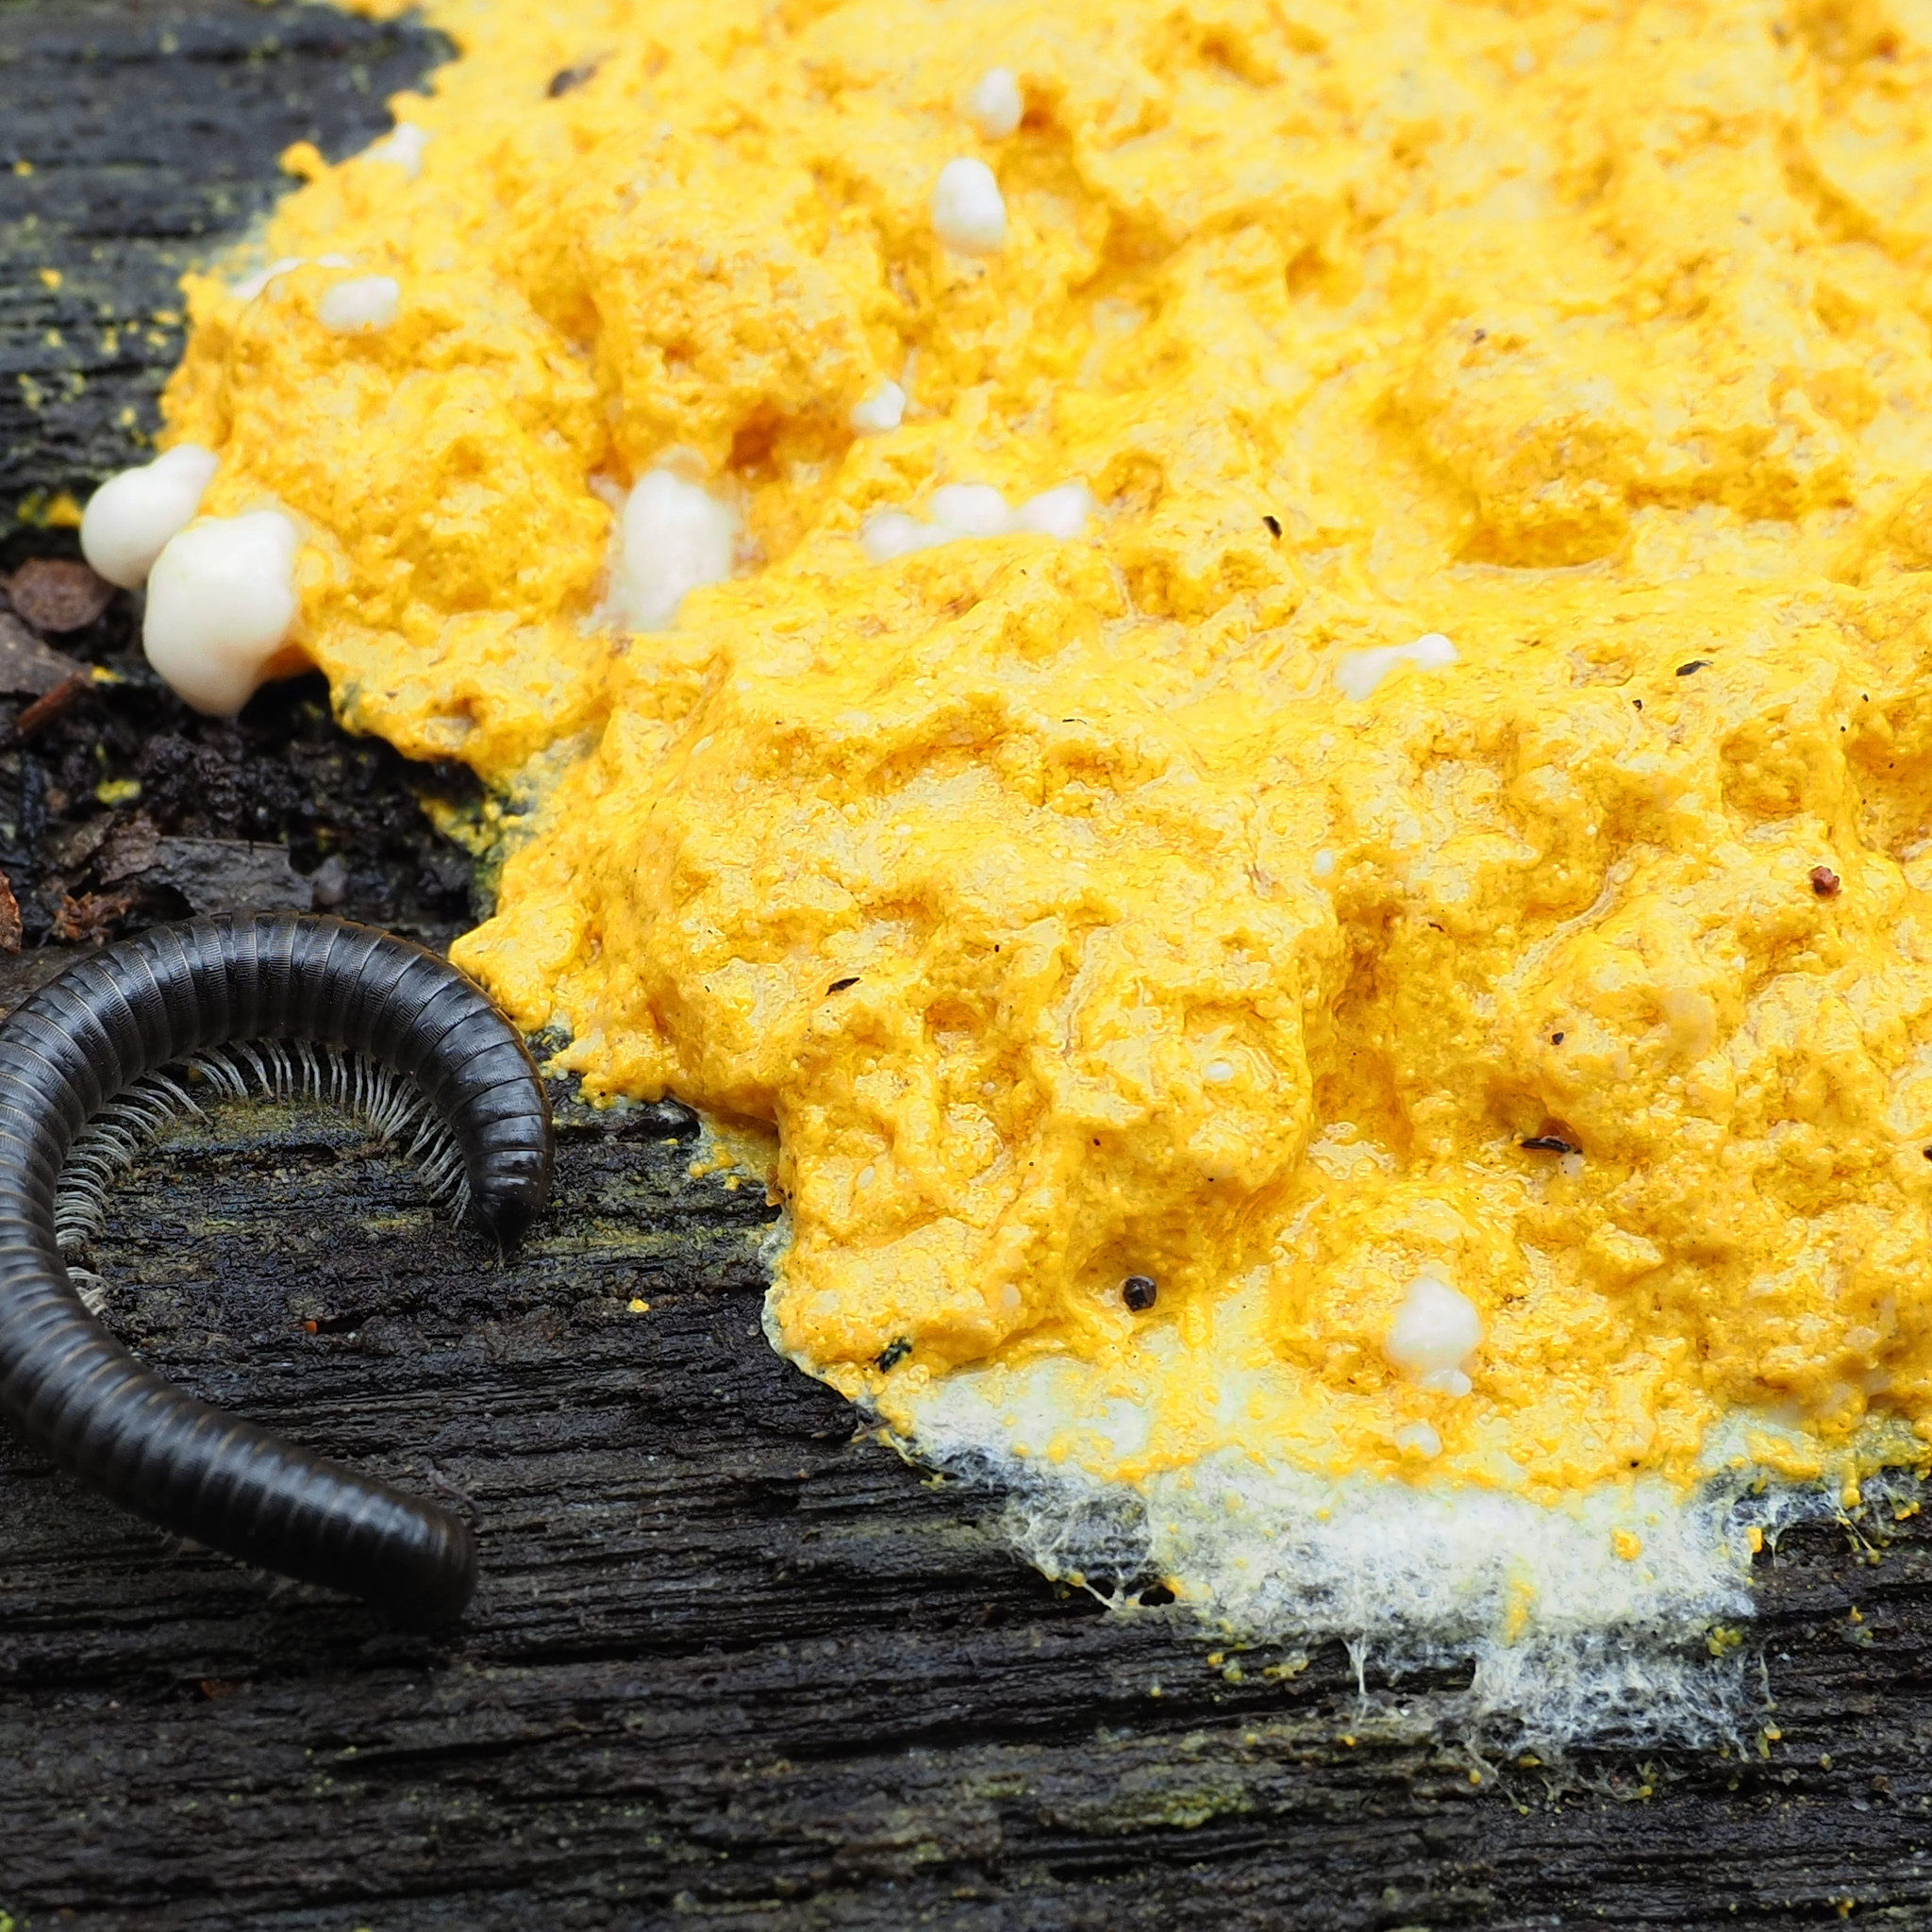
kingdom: Protozoa
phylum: Mycetozoa
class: Myxomycetes
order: Physarales
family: Physaraceae
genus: Fuligo
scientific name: Fuligo septica
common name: Dog vomit slime mold
